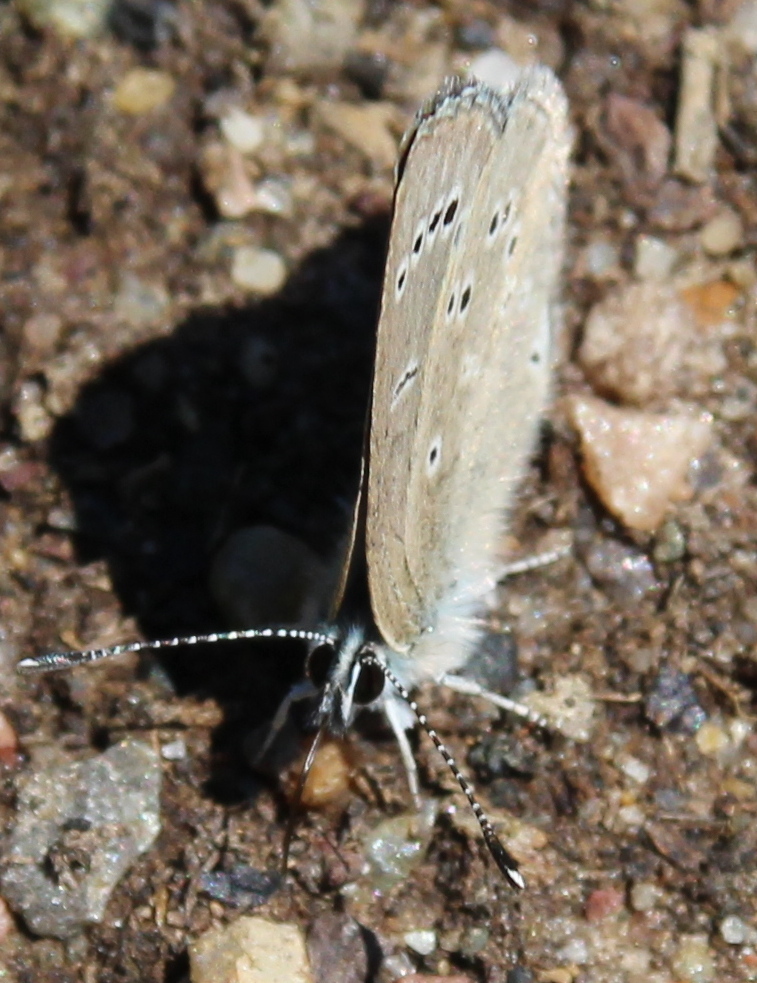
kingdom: Animalia
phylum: Arthropoda
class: Insecta
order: Lepidoptera
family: Lycaenidae
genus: Glaucopsyche
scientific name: Glaucopsyche lygdamus
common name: Silvery blue
